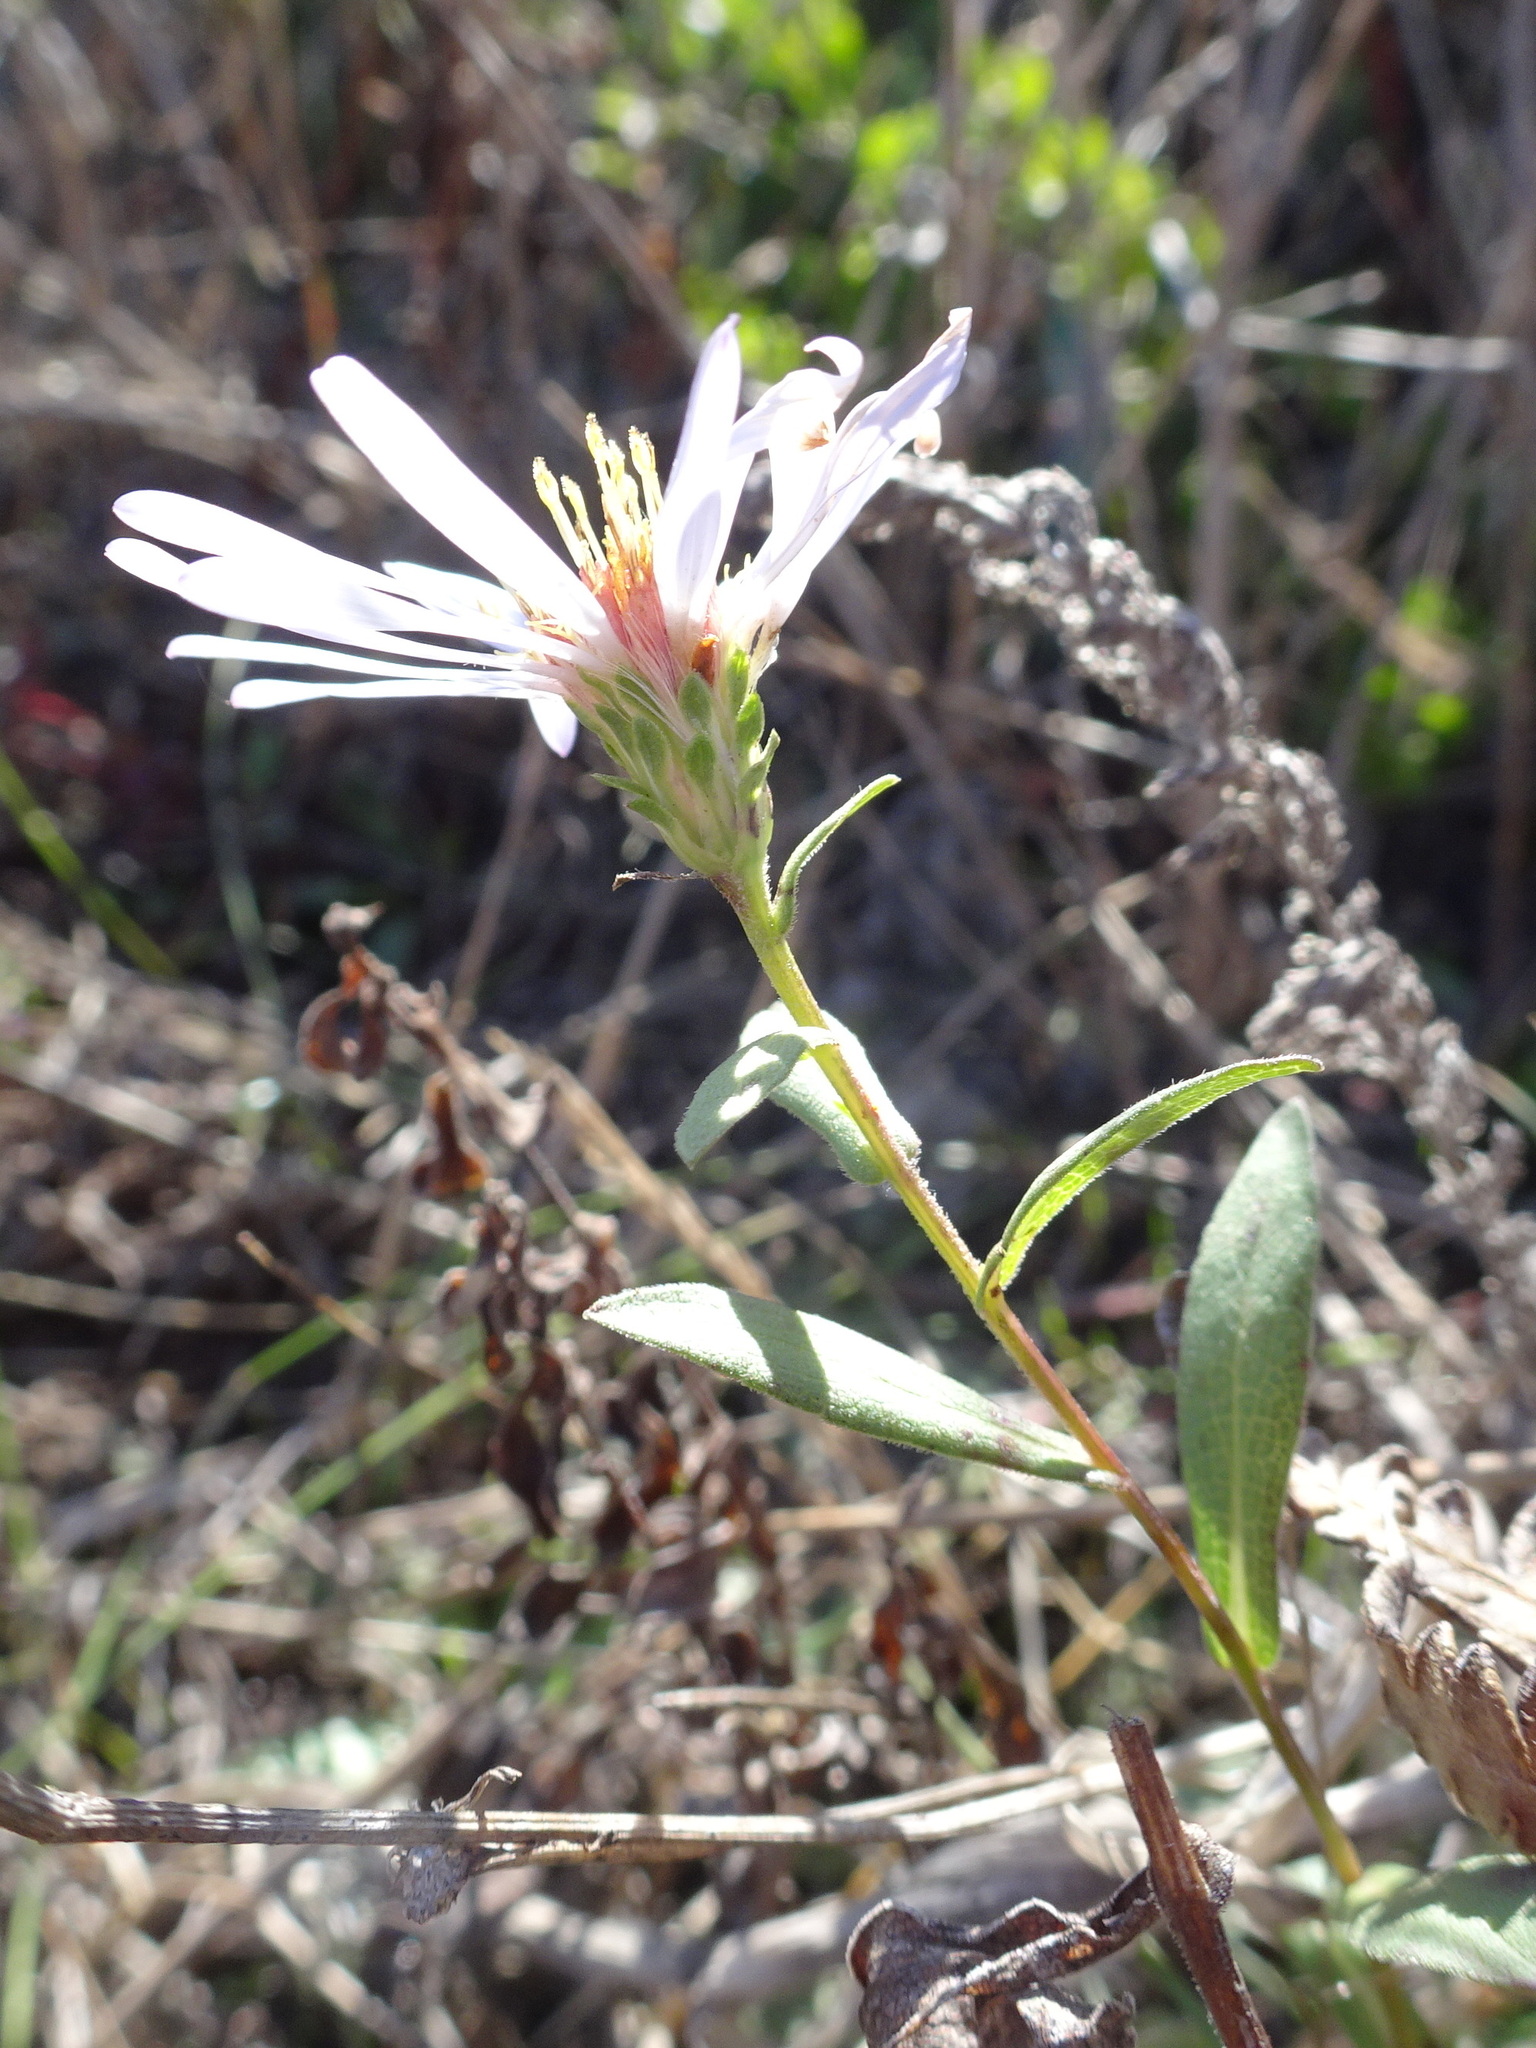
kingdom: Plantae
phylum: Tracheophyta
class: Magnoliopsida
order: Asterales
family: Asteraceae
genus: Symphyotrichum
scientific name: Symphyotrichum chilense
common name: Pacific aster
